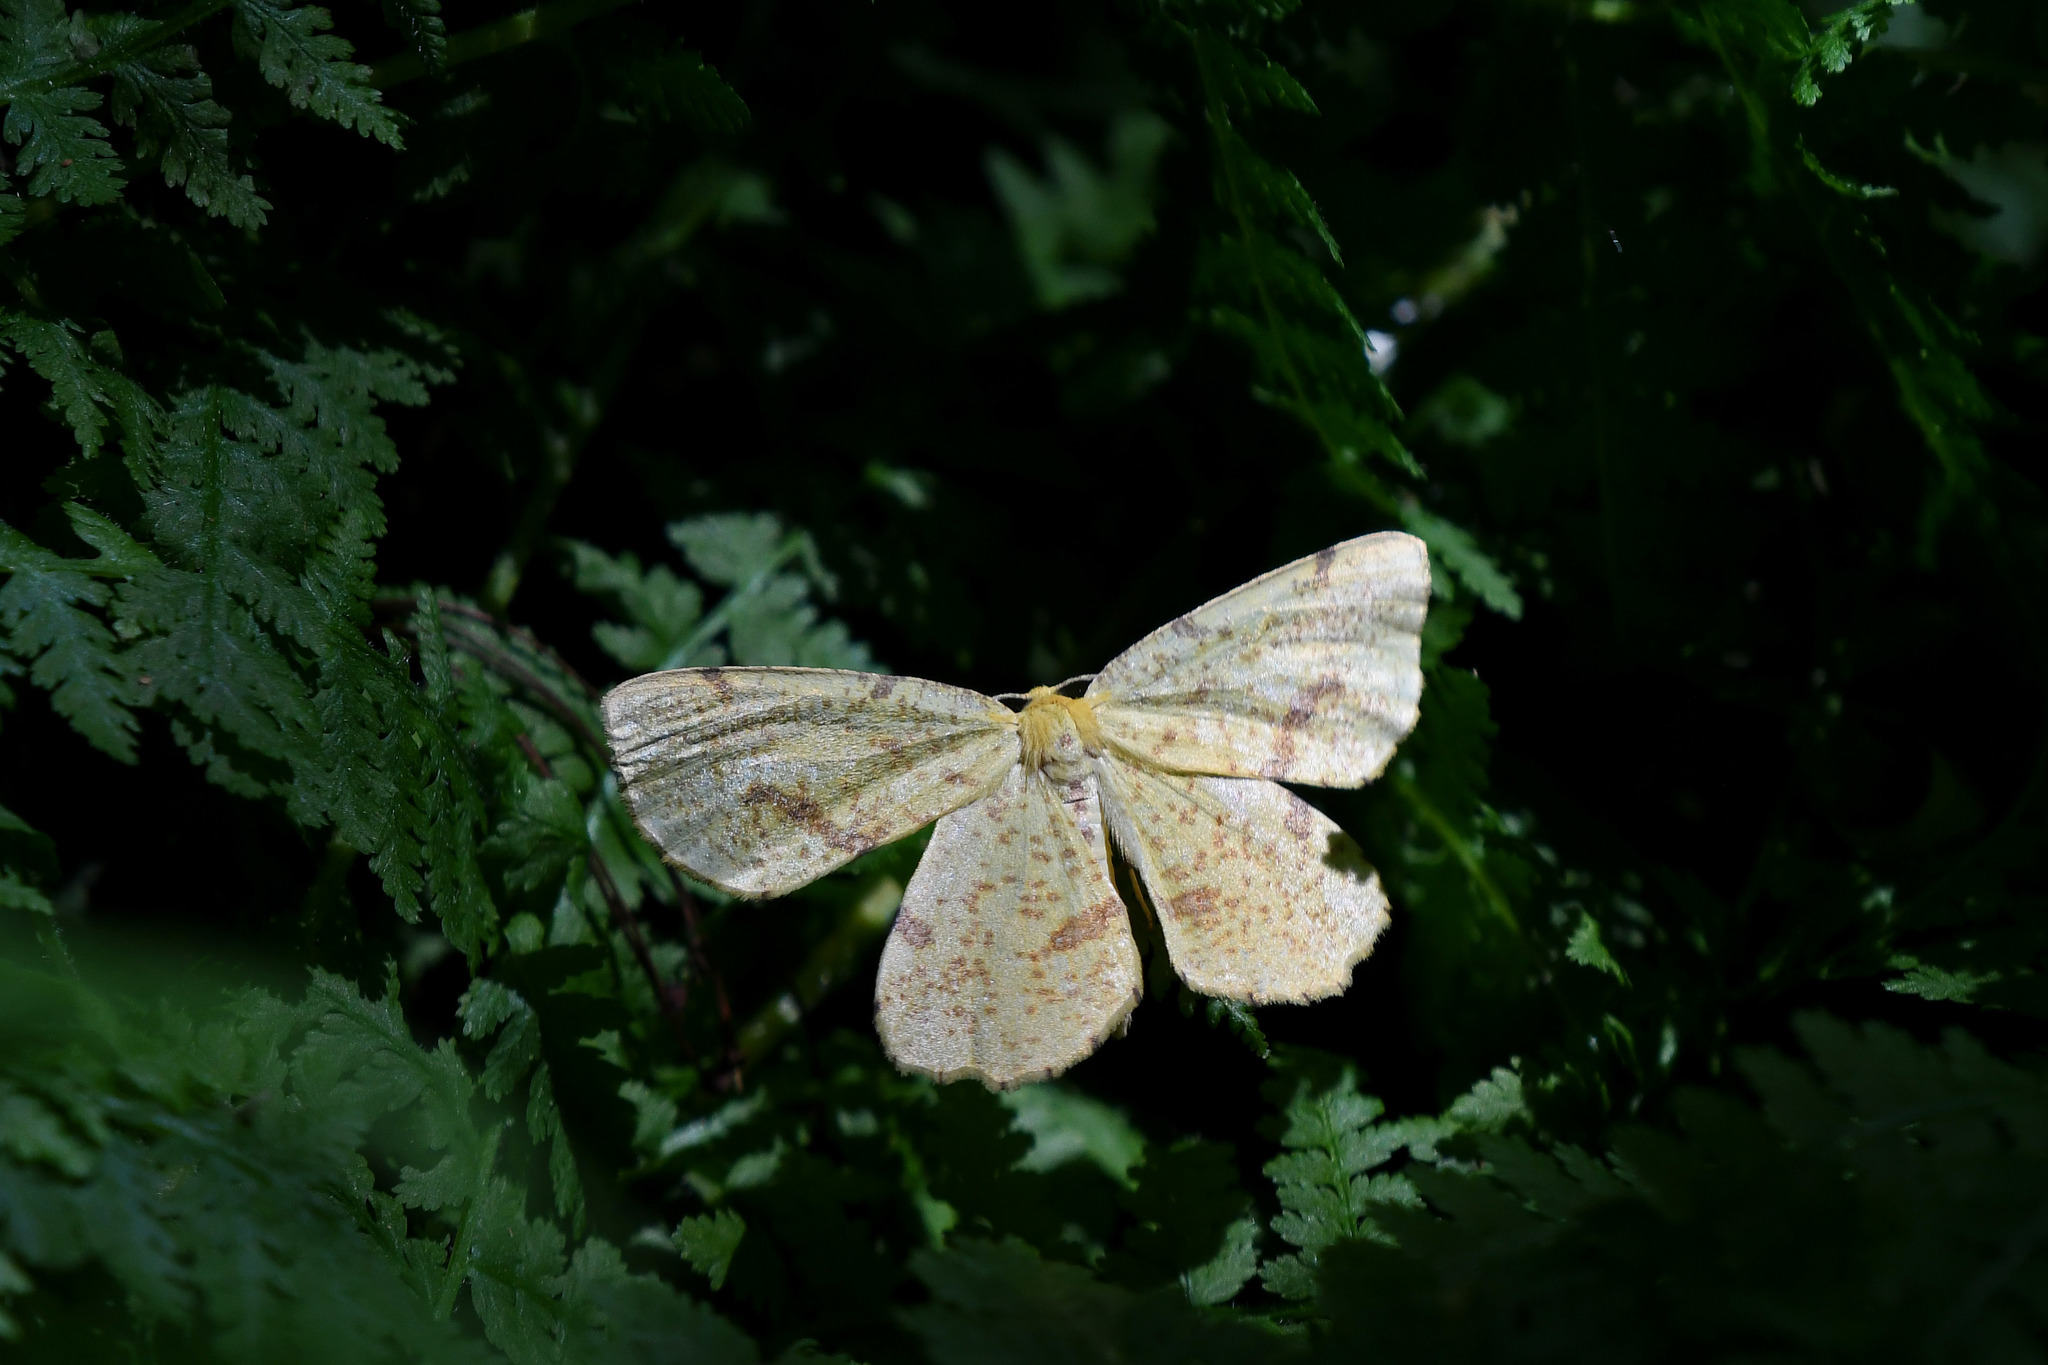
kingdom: Animalia
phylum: Arthropoda
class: Insecta
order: Lepidoptera
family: Geometridae
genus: Xanthotype
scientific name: Xanthotype
